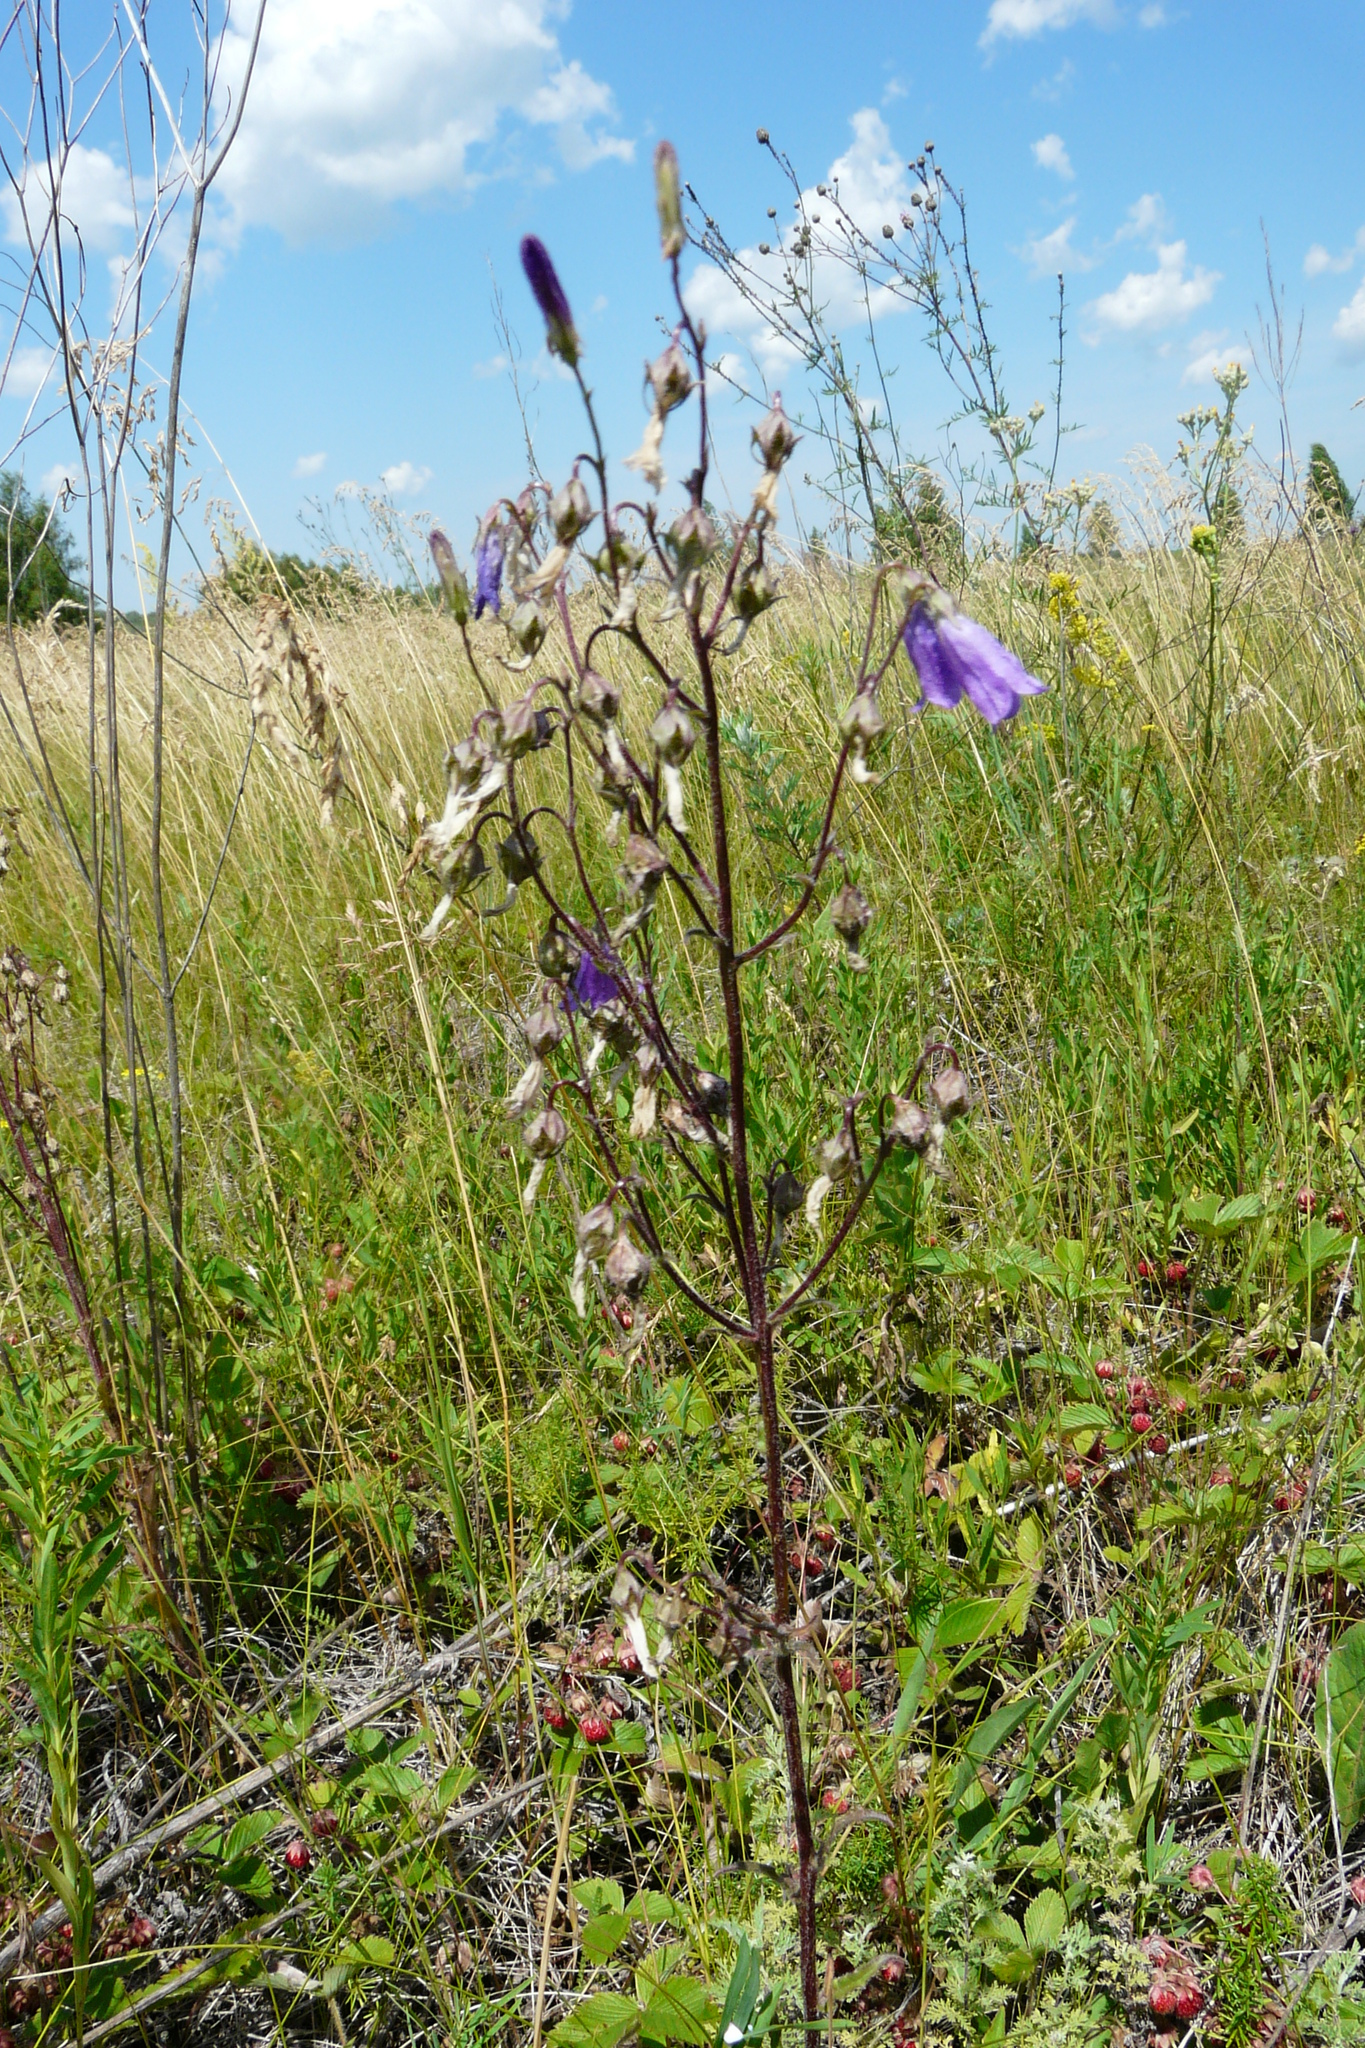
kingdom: Plantae
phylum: Tracheophyta
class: Magnoliopsida
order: Asterales
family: Campanulaceae
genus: Campanula
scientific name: Campanula sibirica
